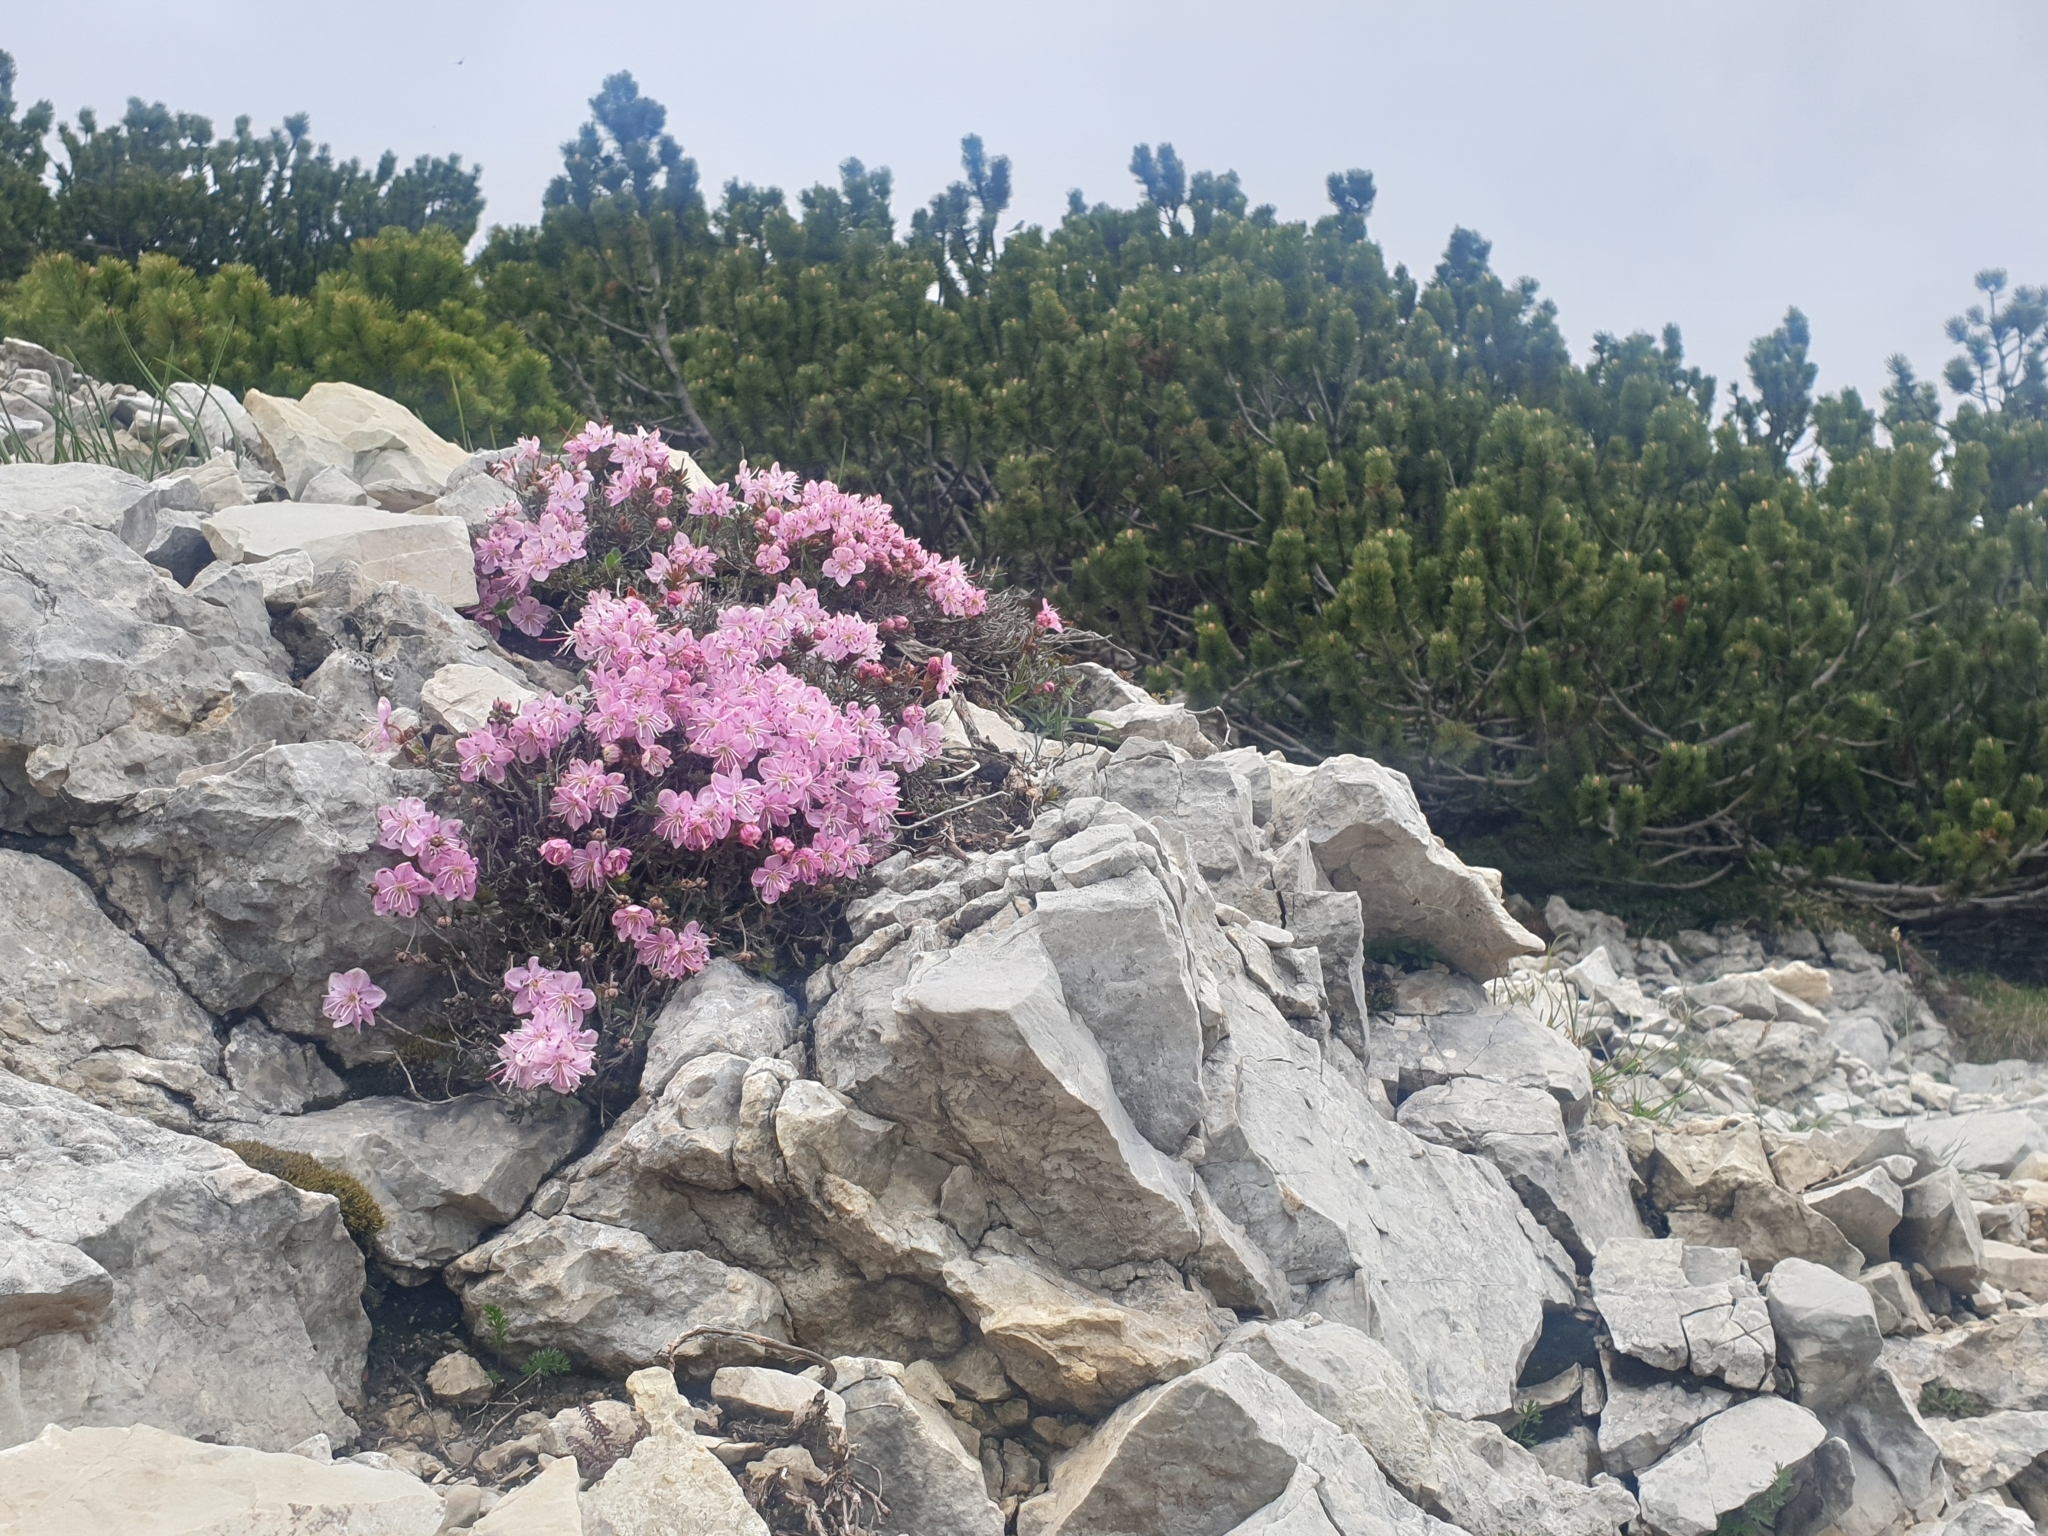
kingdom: Plantae
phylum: Tracheophyta
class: Magnoliopsida
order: Ericales
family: Ericaceae
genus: Rhodothamnus
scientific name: Rhodothamnus chamaecistus
